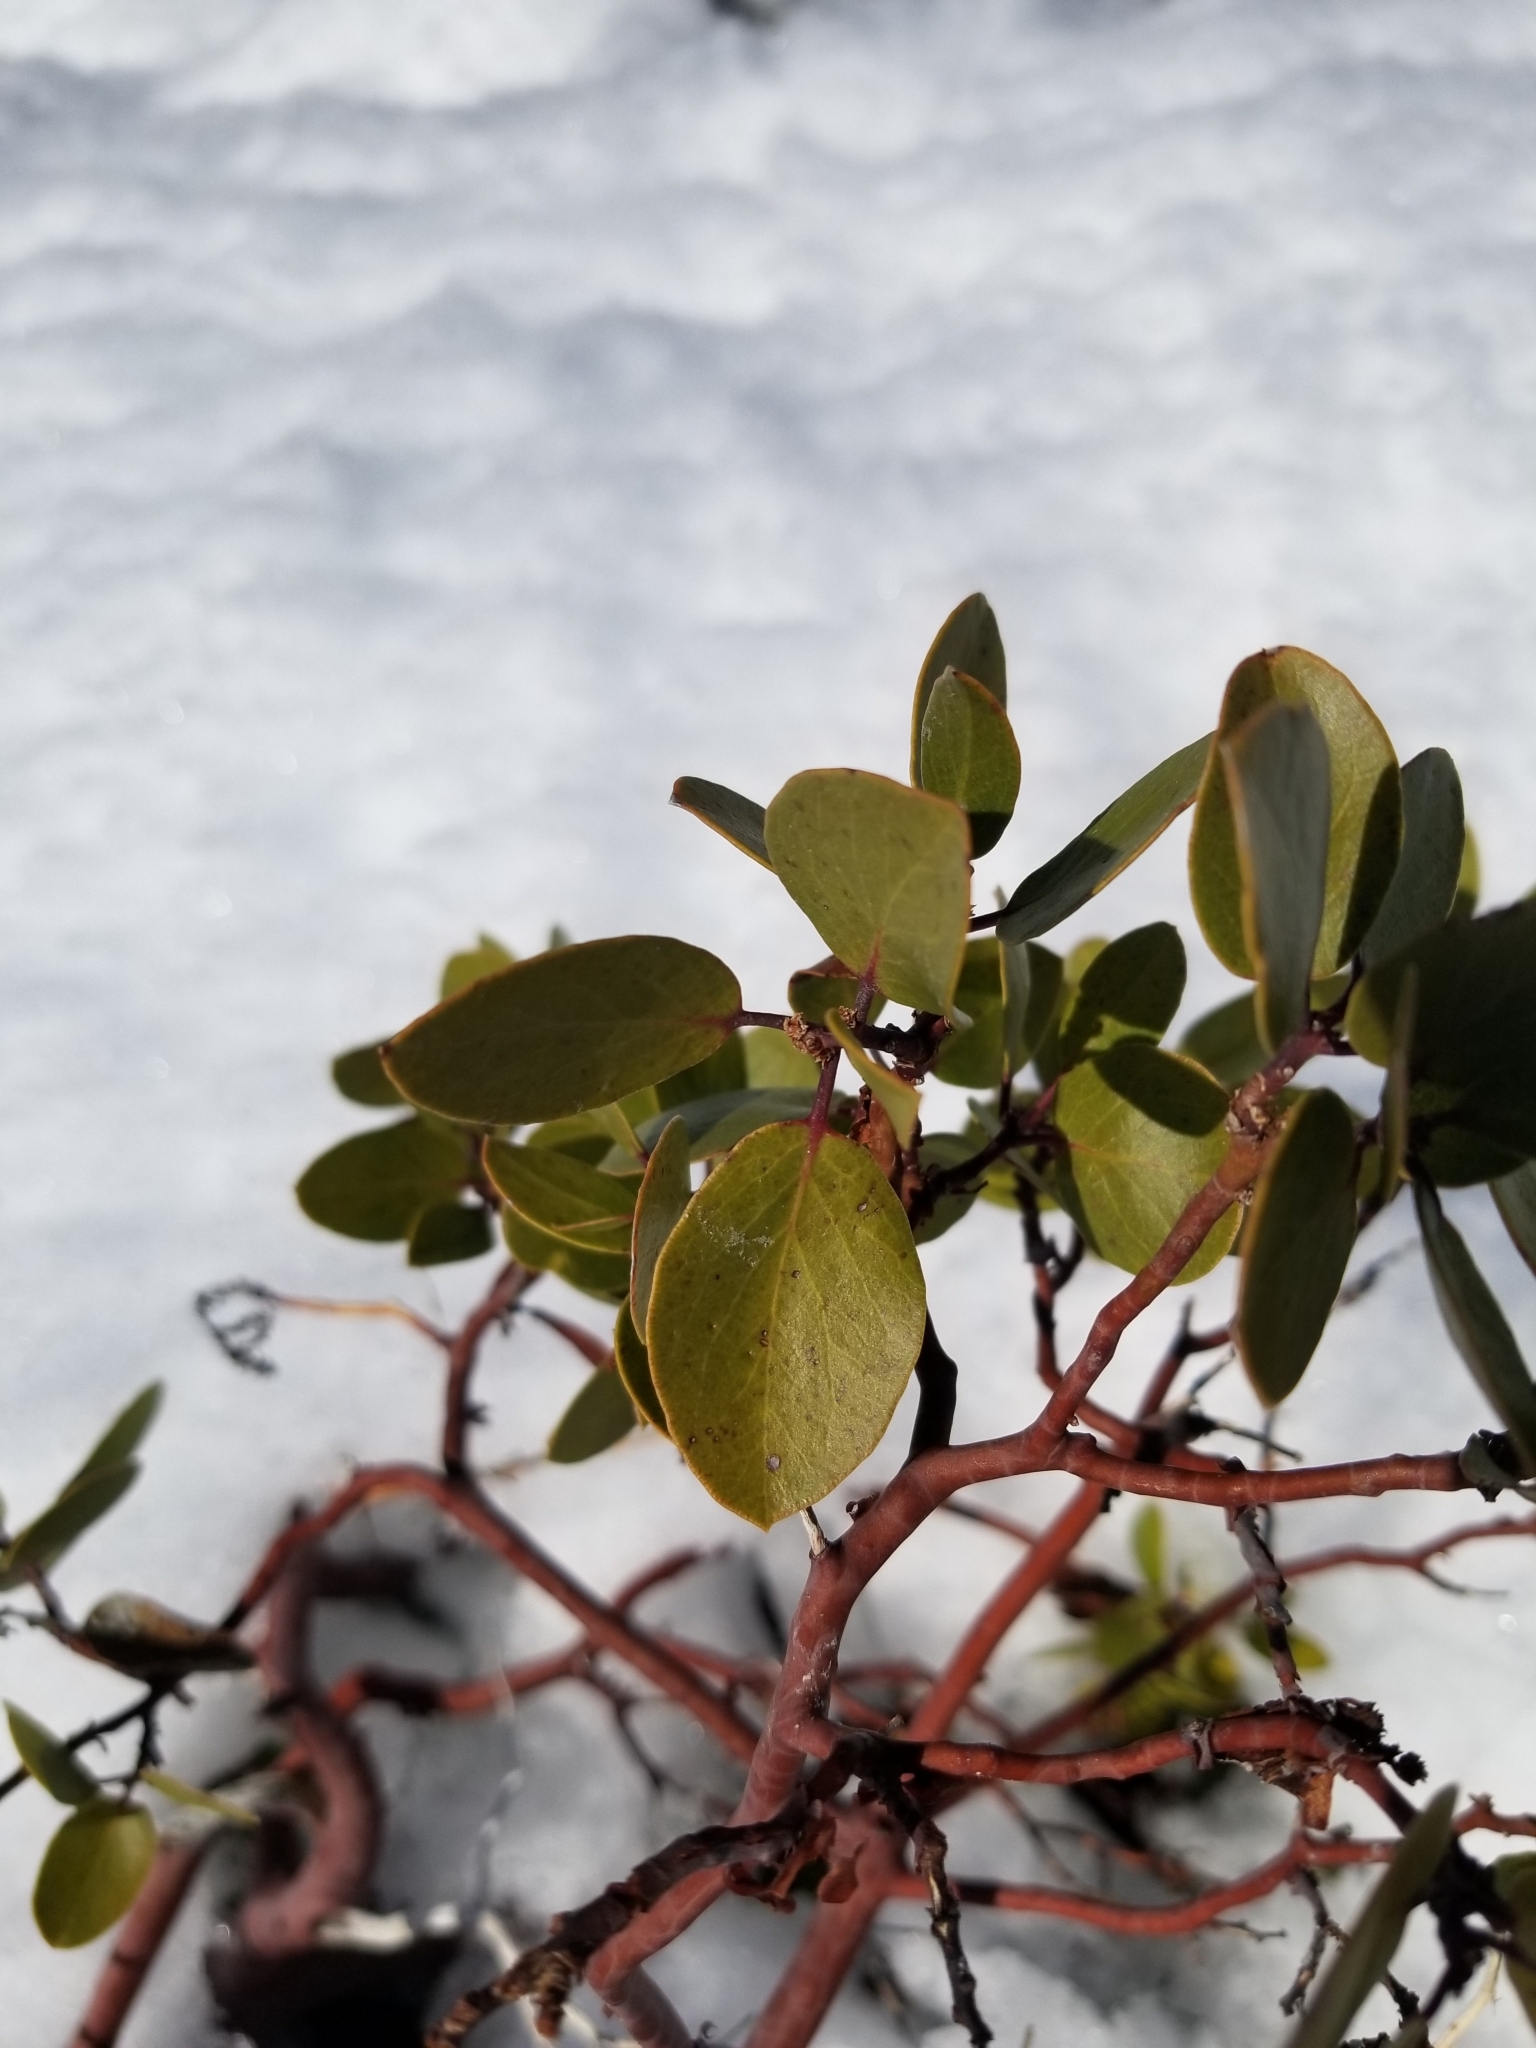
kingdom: Plantae
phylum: Tracheophyta
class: Magnoliopsida
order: Ericales
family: Ericaceae
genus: Arctostaphylos
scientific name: Arctostaphylos patula
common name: Green-leaf manzanita
